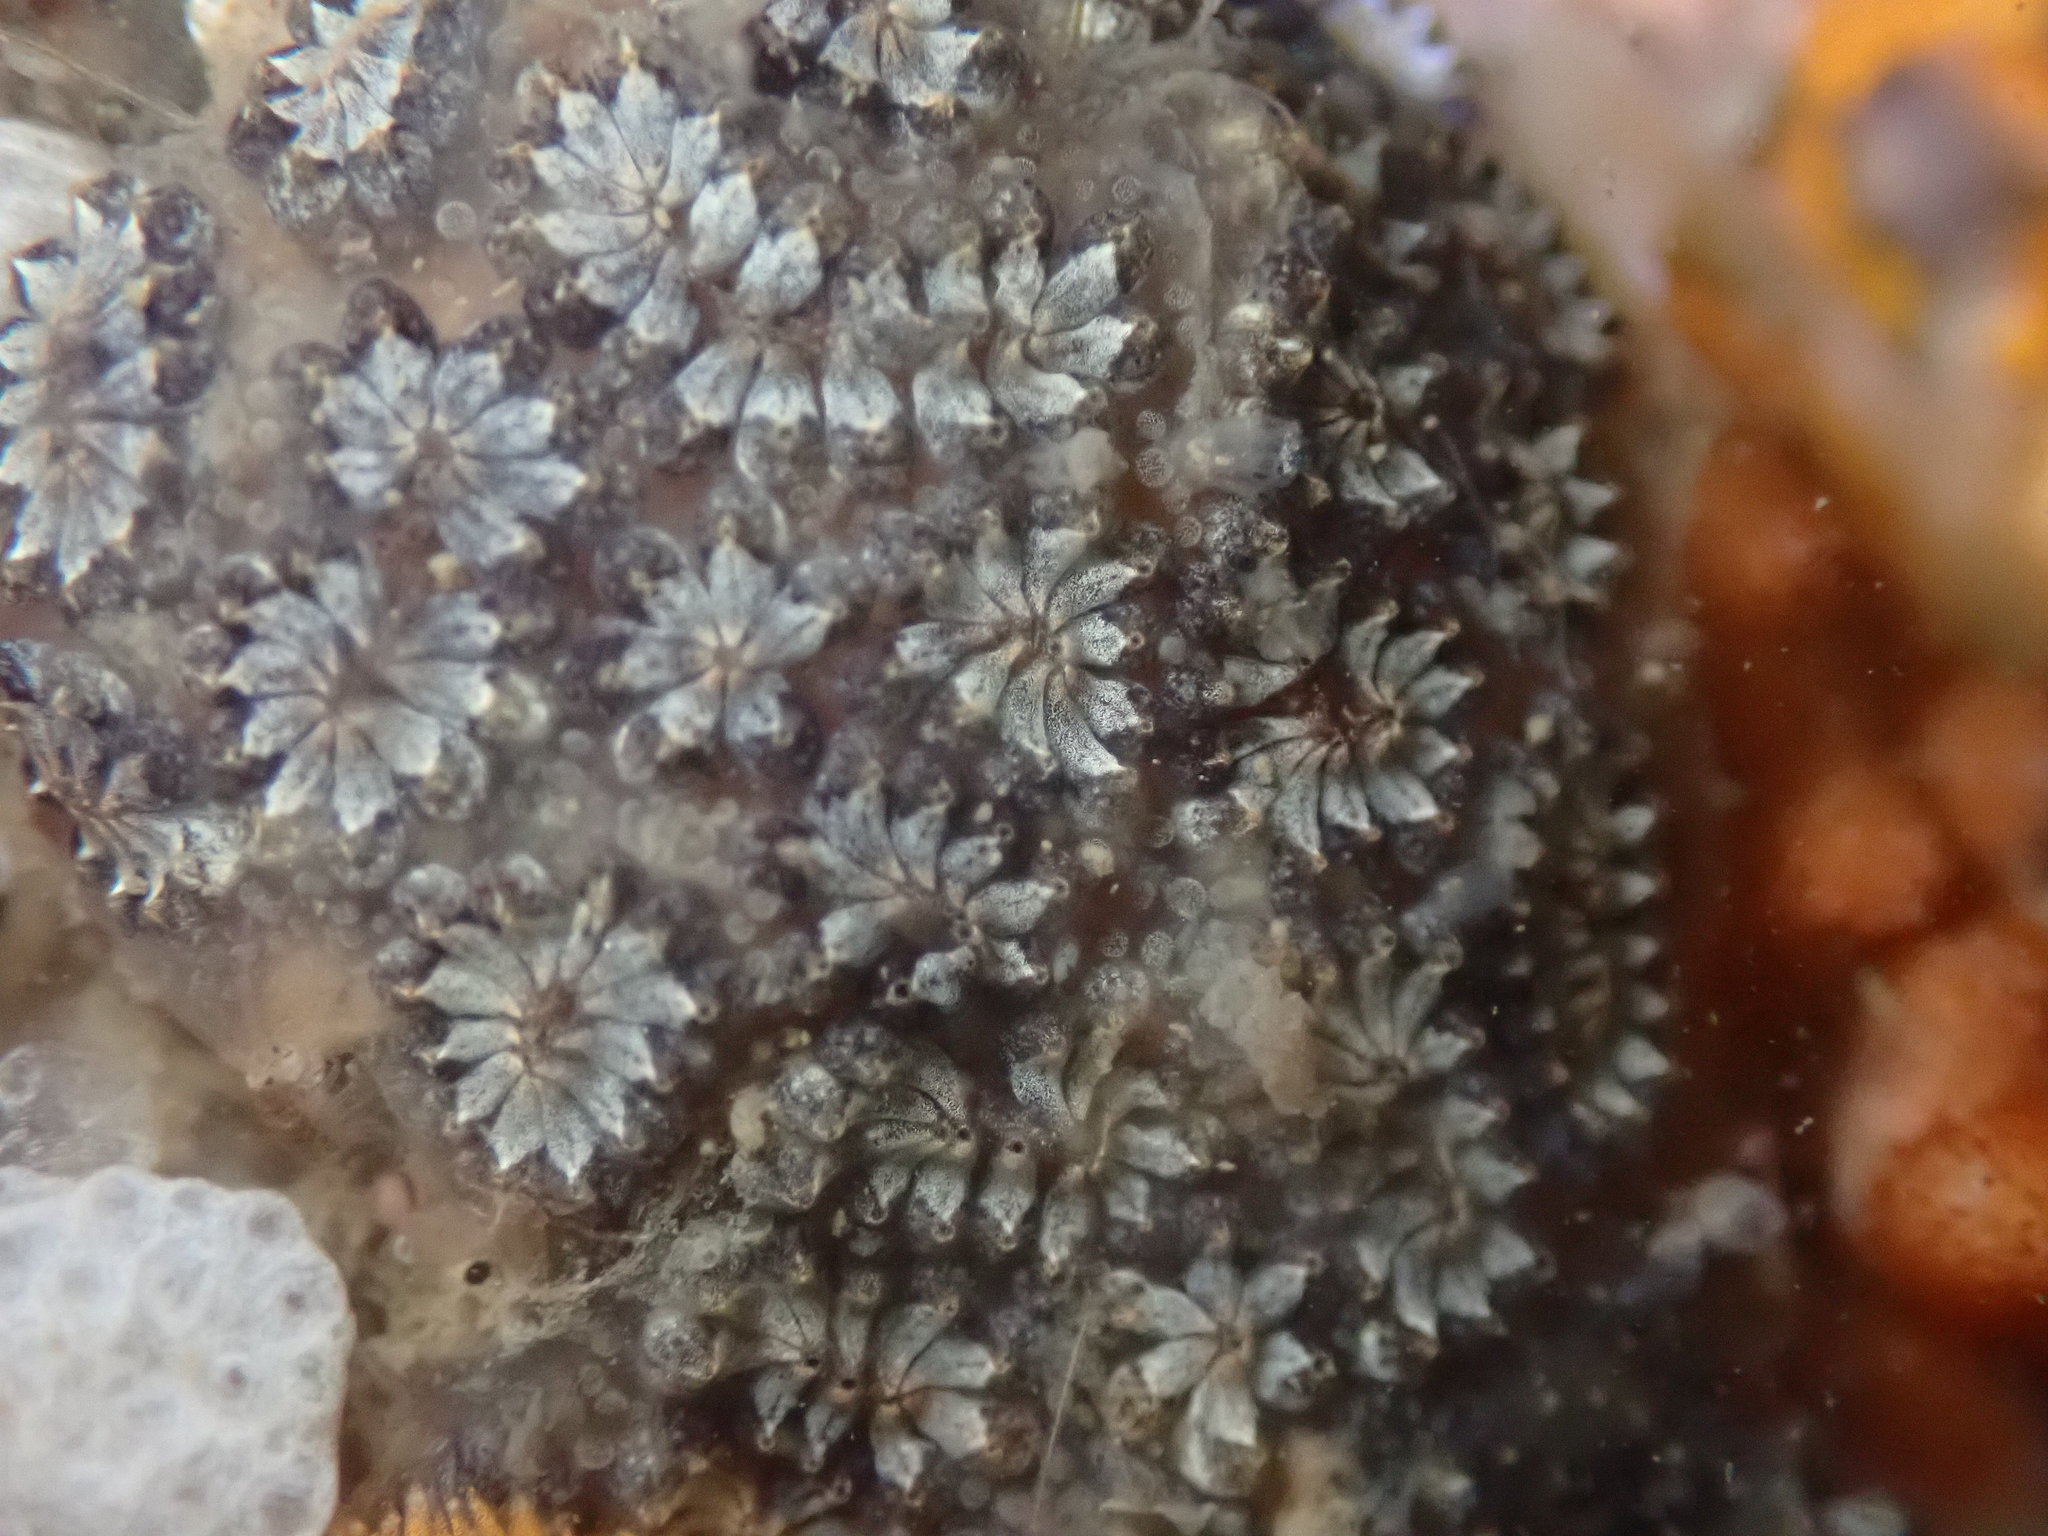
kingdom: Animalia
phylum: Chordata
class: Ascidiacea
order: Stolidobranchia
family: Styelidae
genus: Botryllus
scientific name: Botryllus schlosseri
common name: Golden star tunicate
